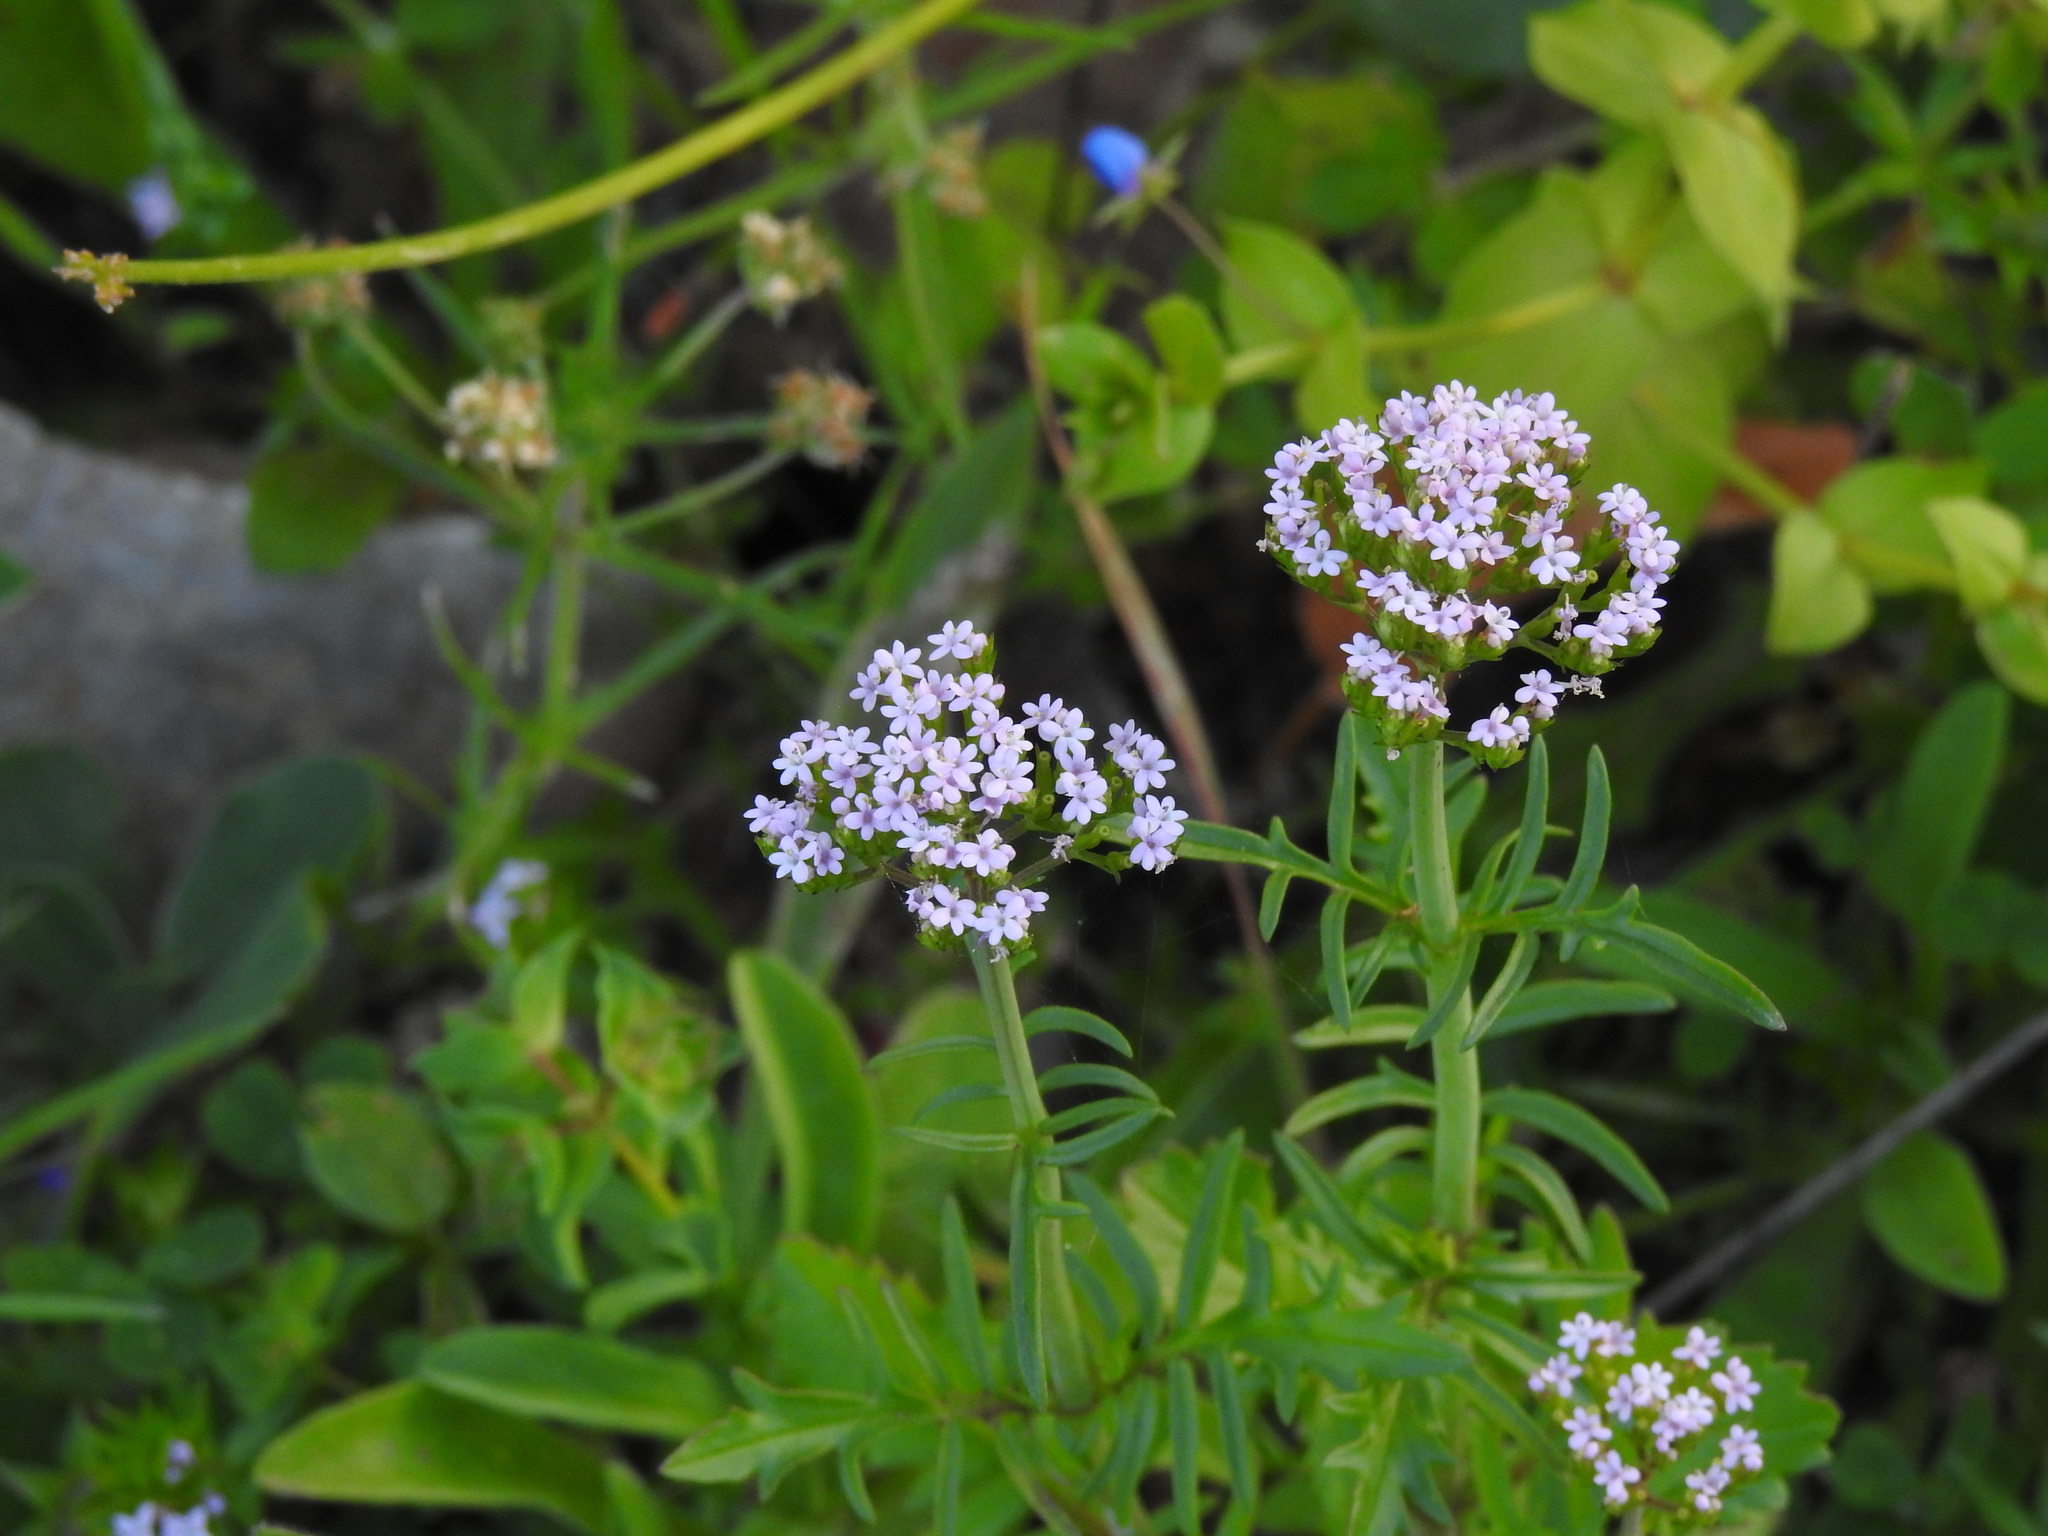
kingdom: Plantae
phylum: Tracheophyta
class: Magnoliopsida
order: Dipsacales
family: Caprifoliaceae
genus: Centranthus
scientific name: Centranthus calcitrapae
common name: Annual valerian
